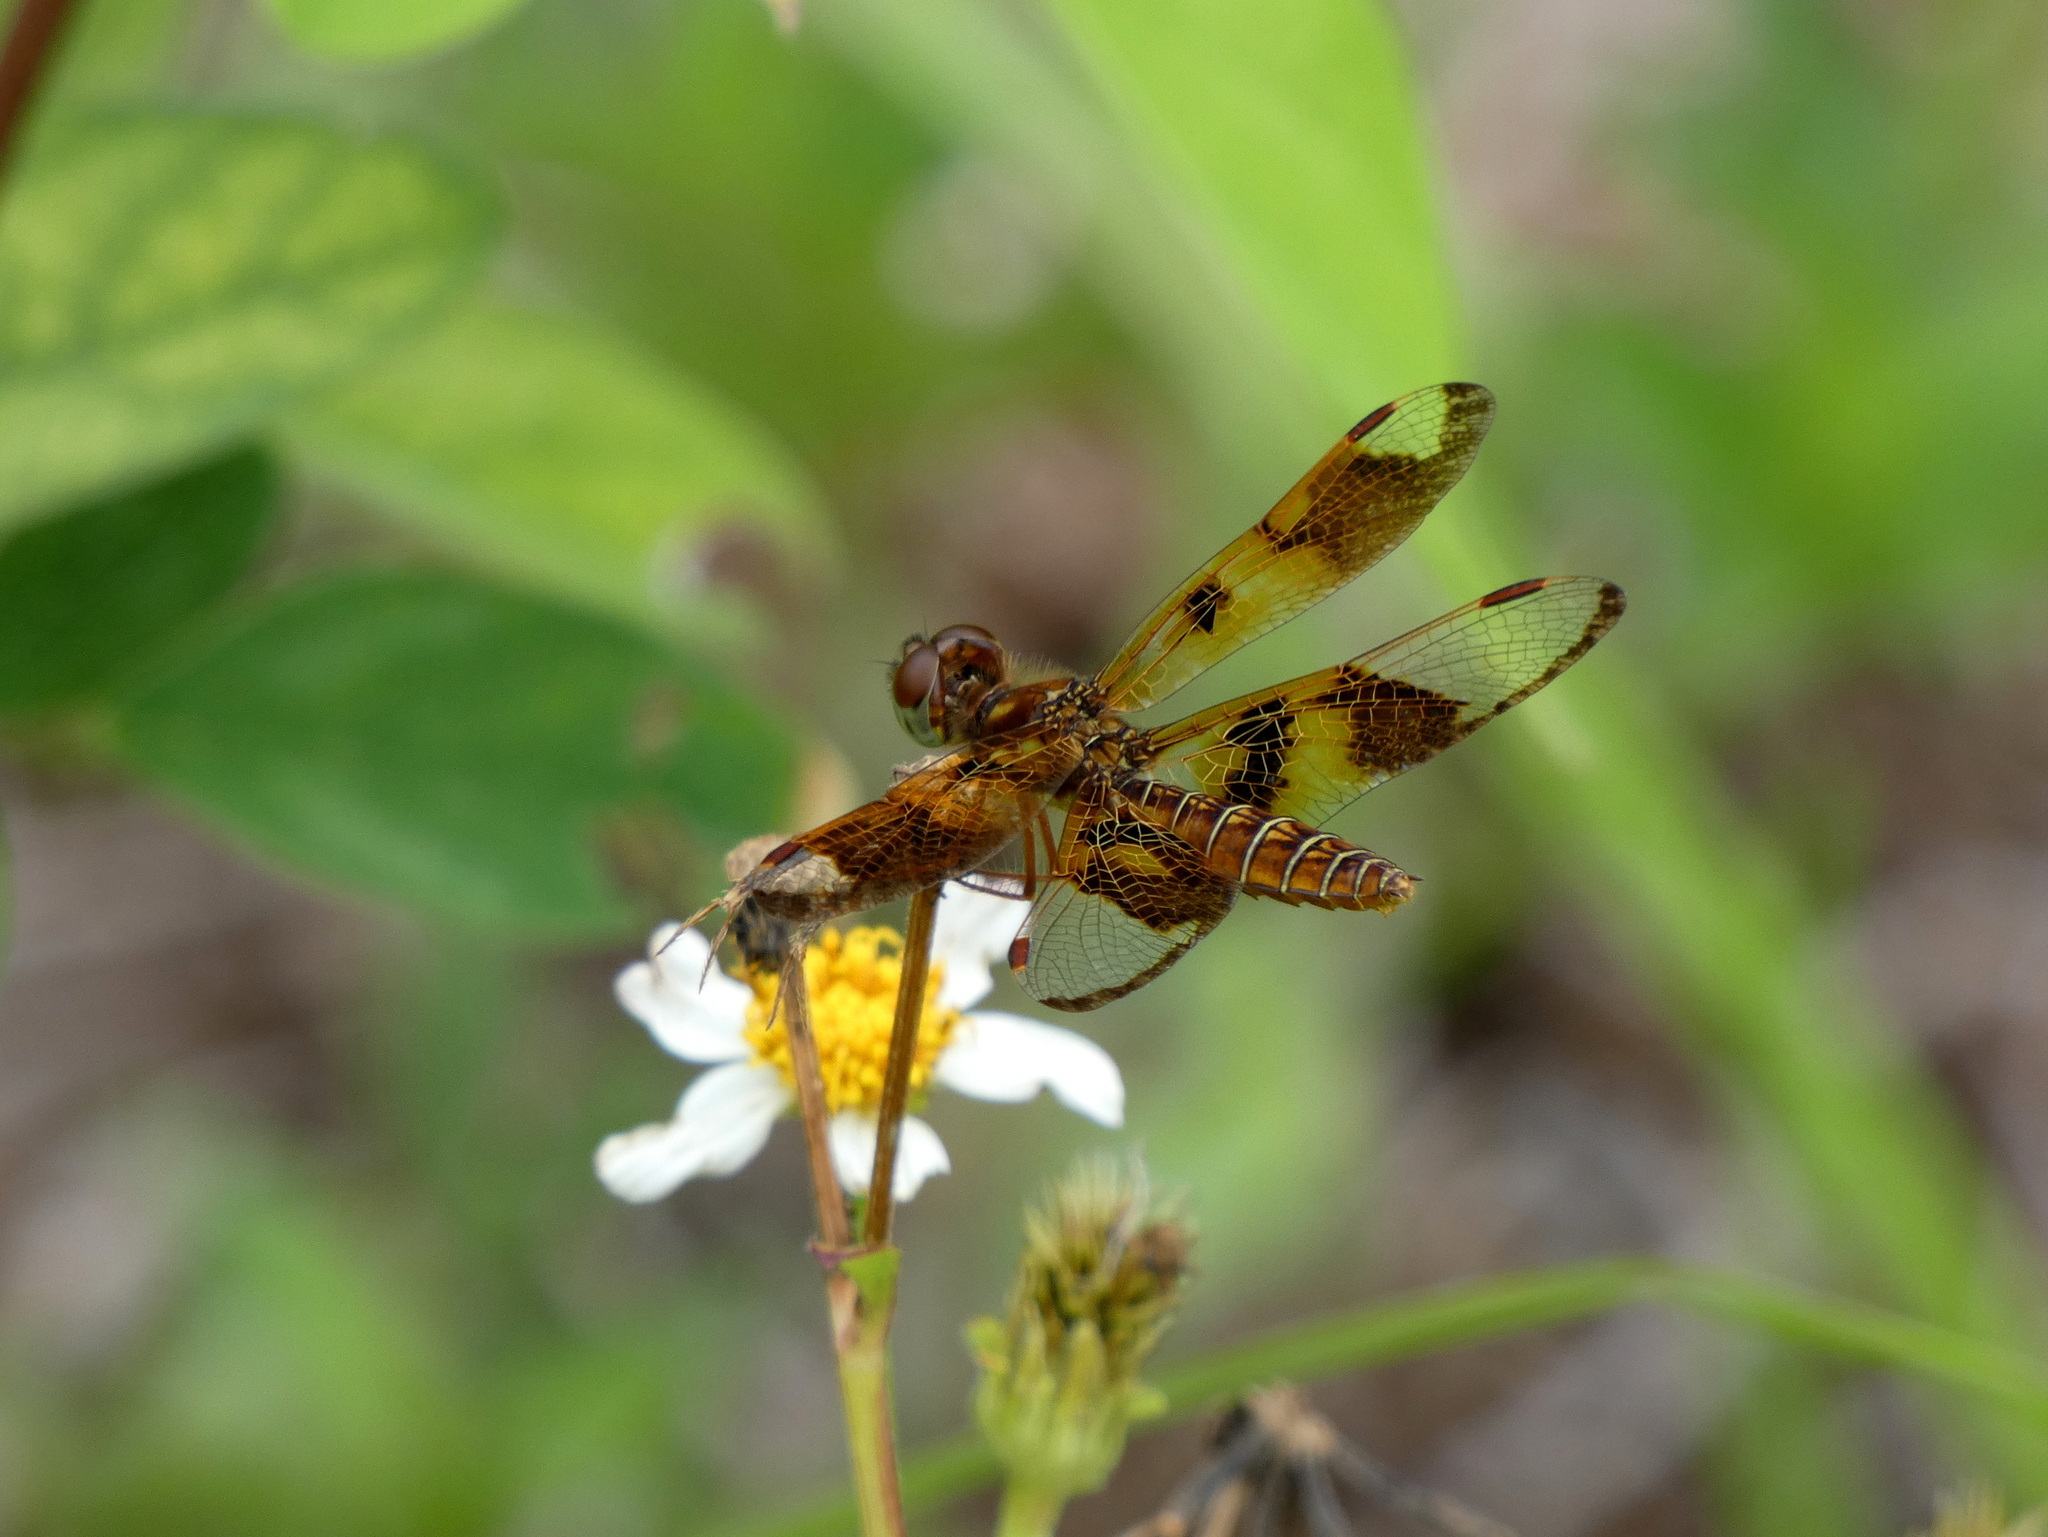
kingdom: Animalia
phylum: Arthropoda
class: Insecta
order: Odonata
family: Libellulidae
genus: Perithemis
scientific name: Perithemis tenera
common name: Eastern amberwing
